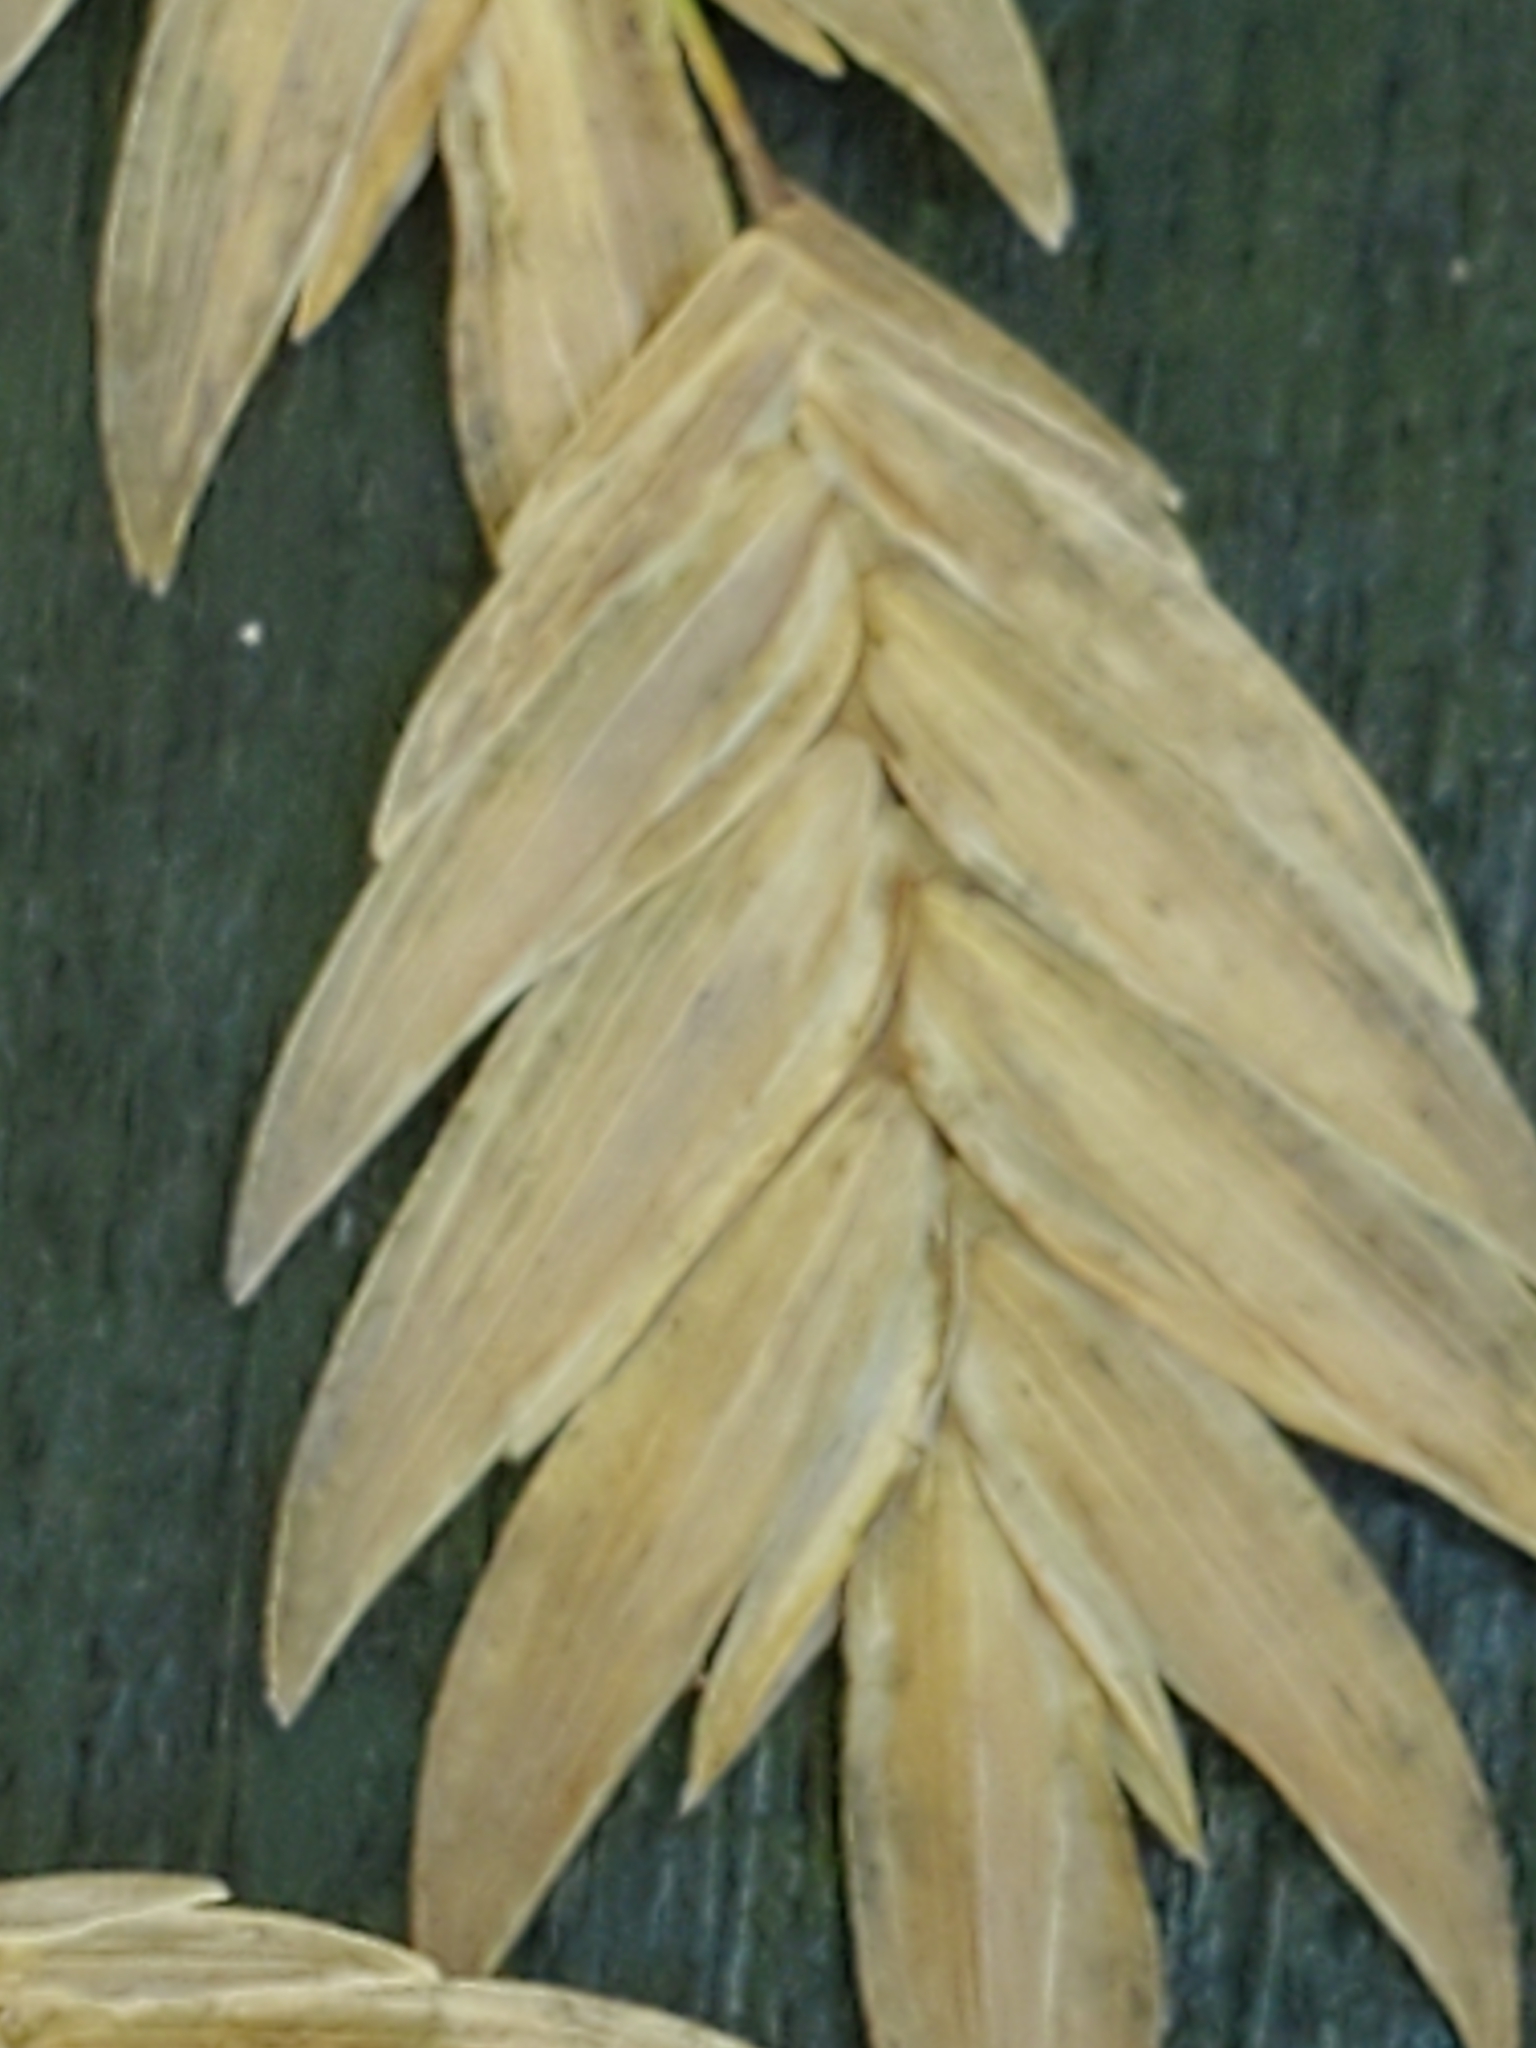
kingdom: Plantae
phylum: Tracheophyta
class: Liliopsida
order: Poales
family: Poaceae
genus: Chasmanthium
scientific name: Chasmanthium latifolium
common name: Broad-leaved chasmanthium
